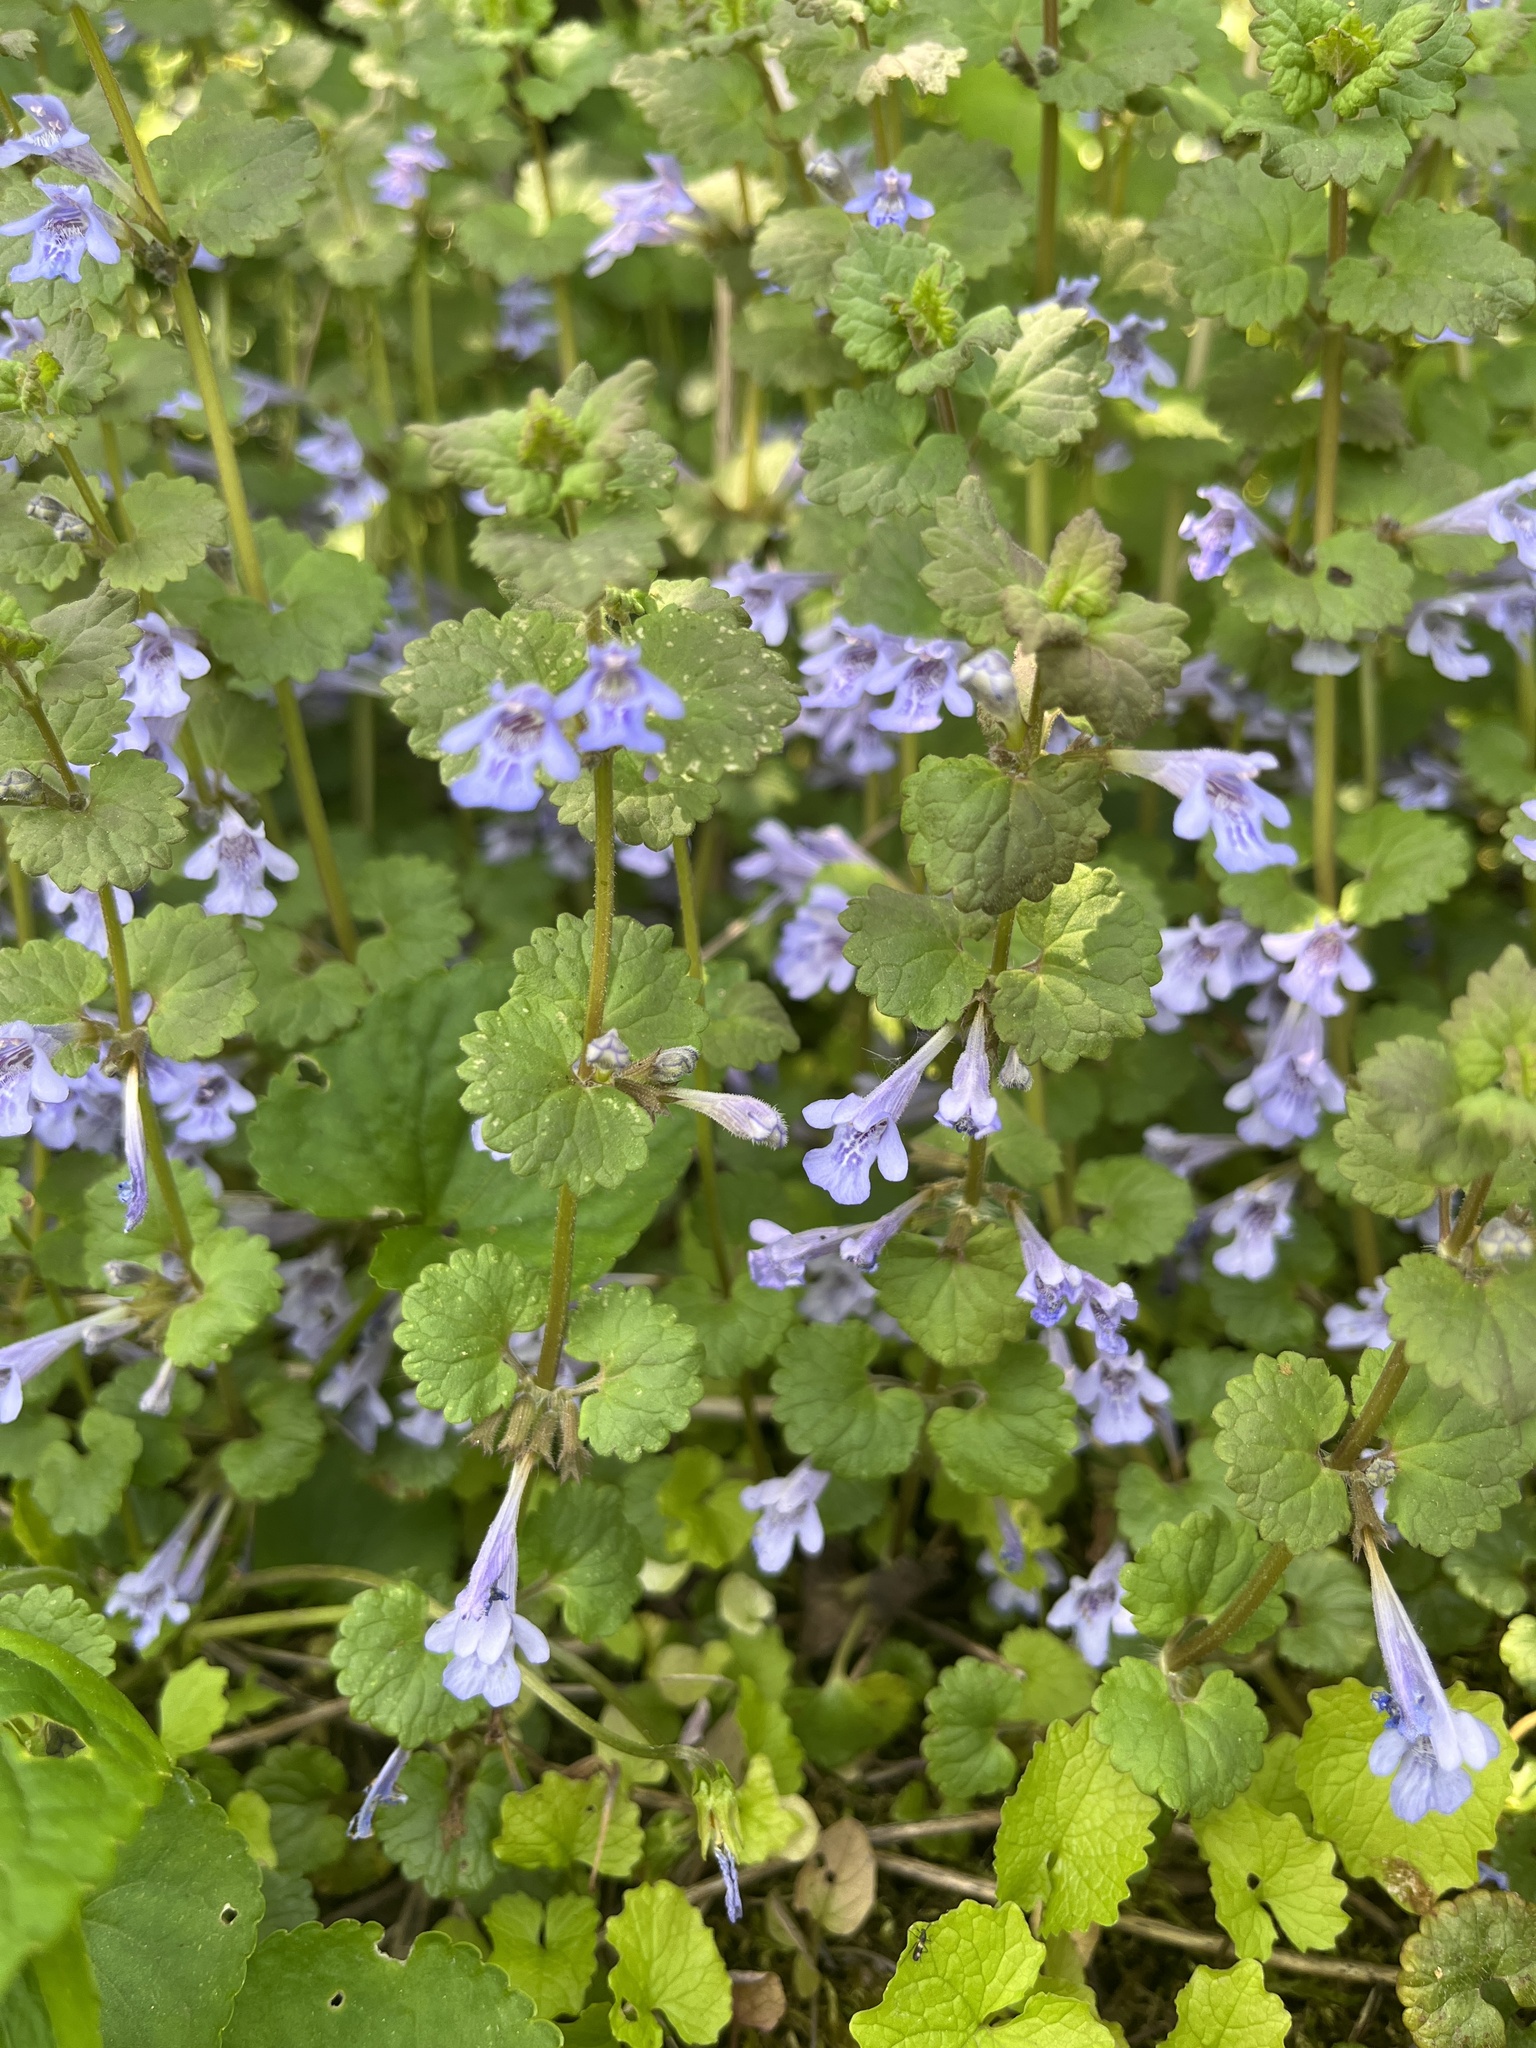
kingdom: Plantae
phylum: Tracheophyta
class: Magnoliopsida
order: Lamiales
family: Lamiaceae
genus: Glechoma
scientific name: Glechoma hederacea
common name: Ground ivy
